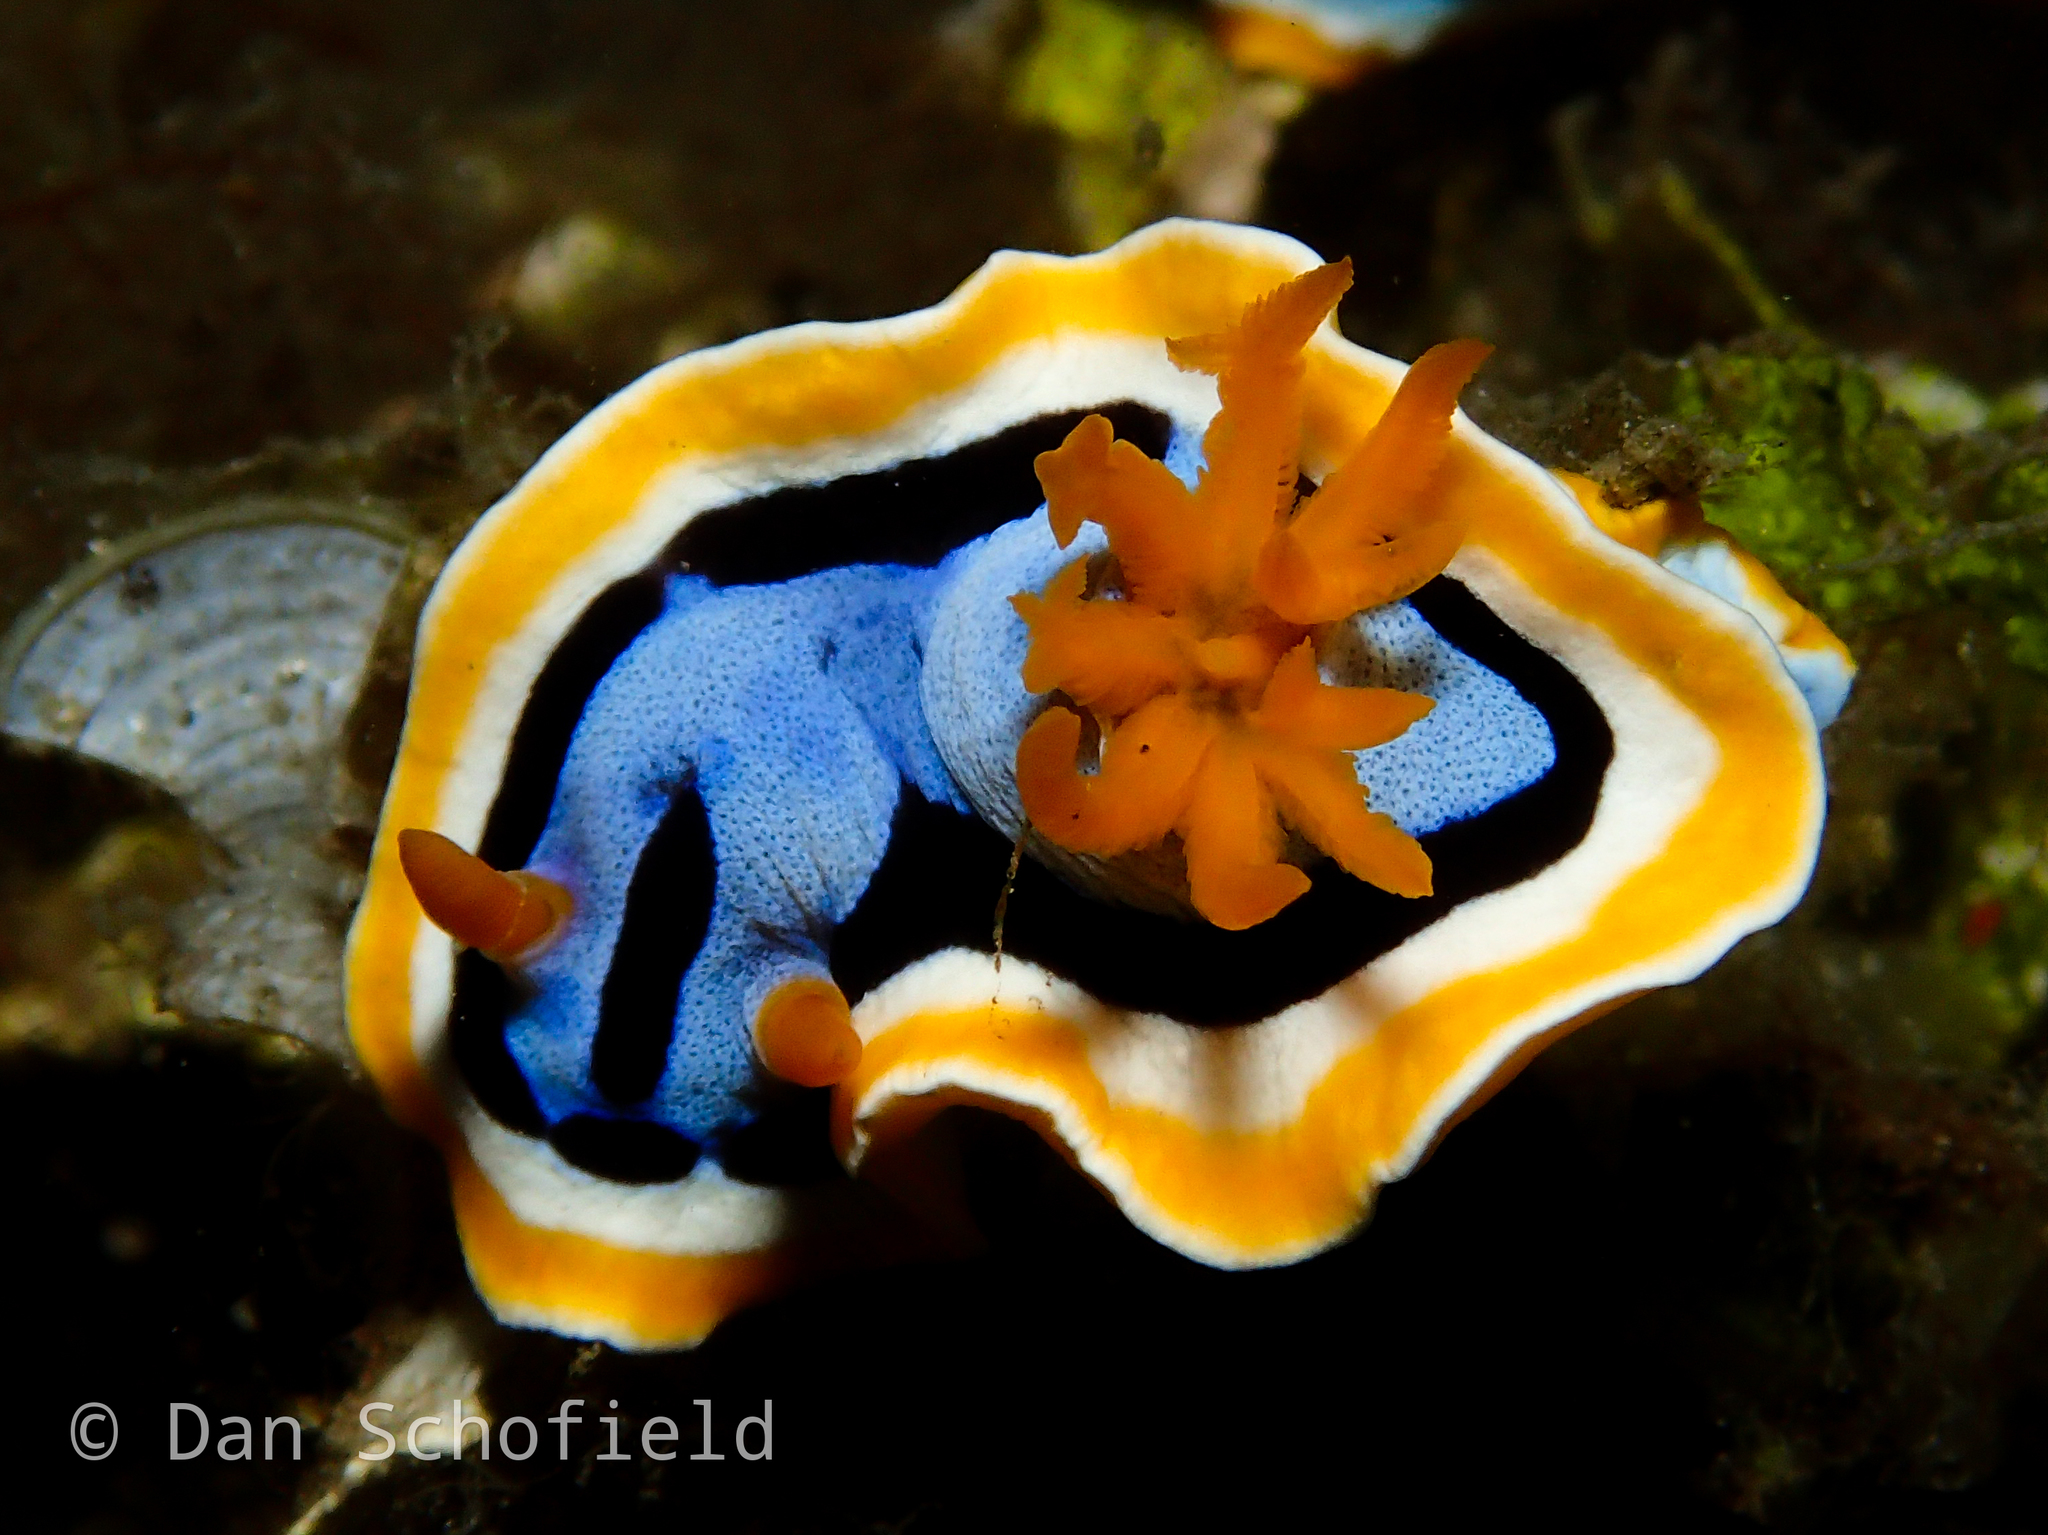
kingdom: Animalia
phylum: Mollusca
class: Gastropoda
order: Nudibranchia
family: Chromodorididae
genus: Chromodoris
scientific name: Chromodoris annae
